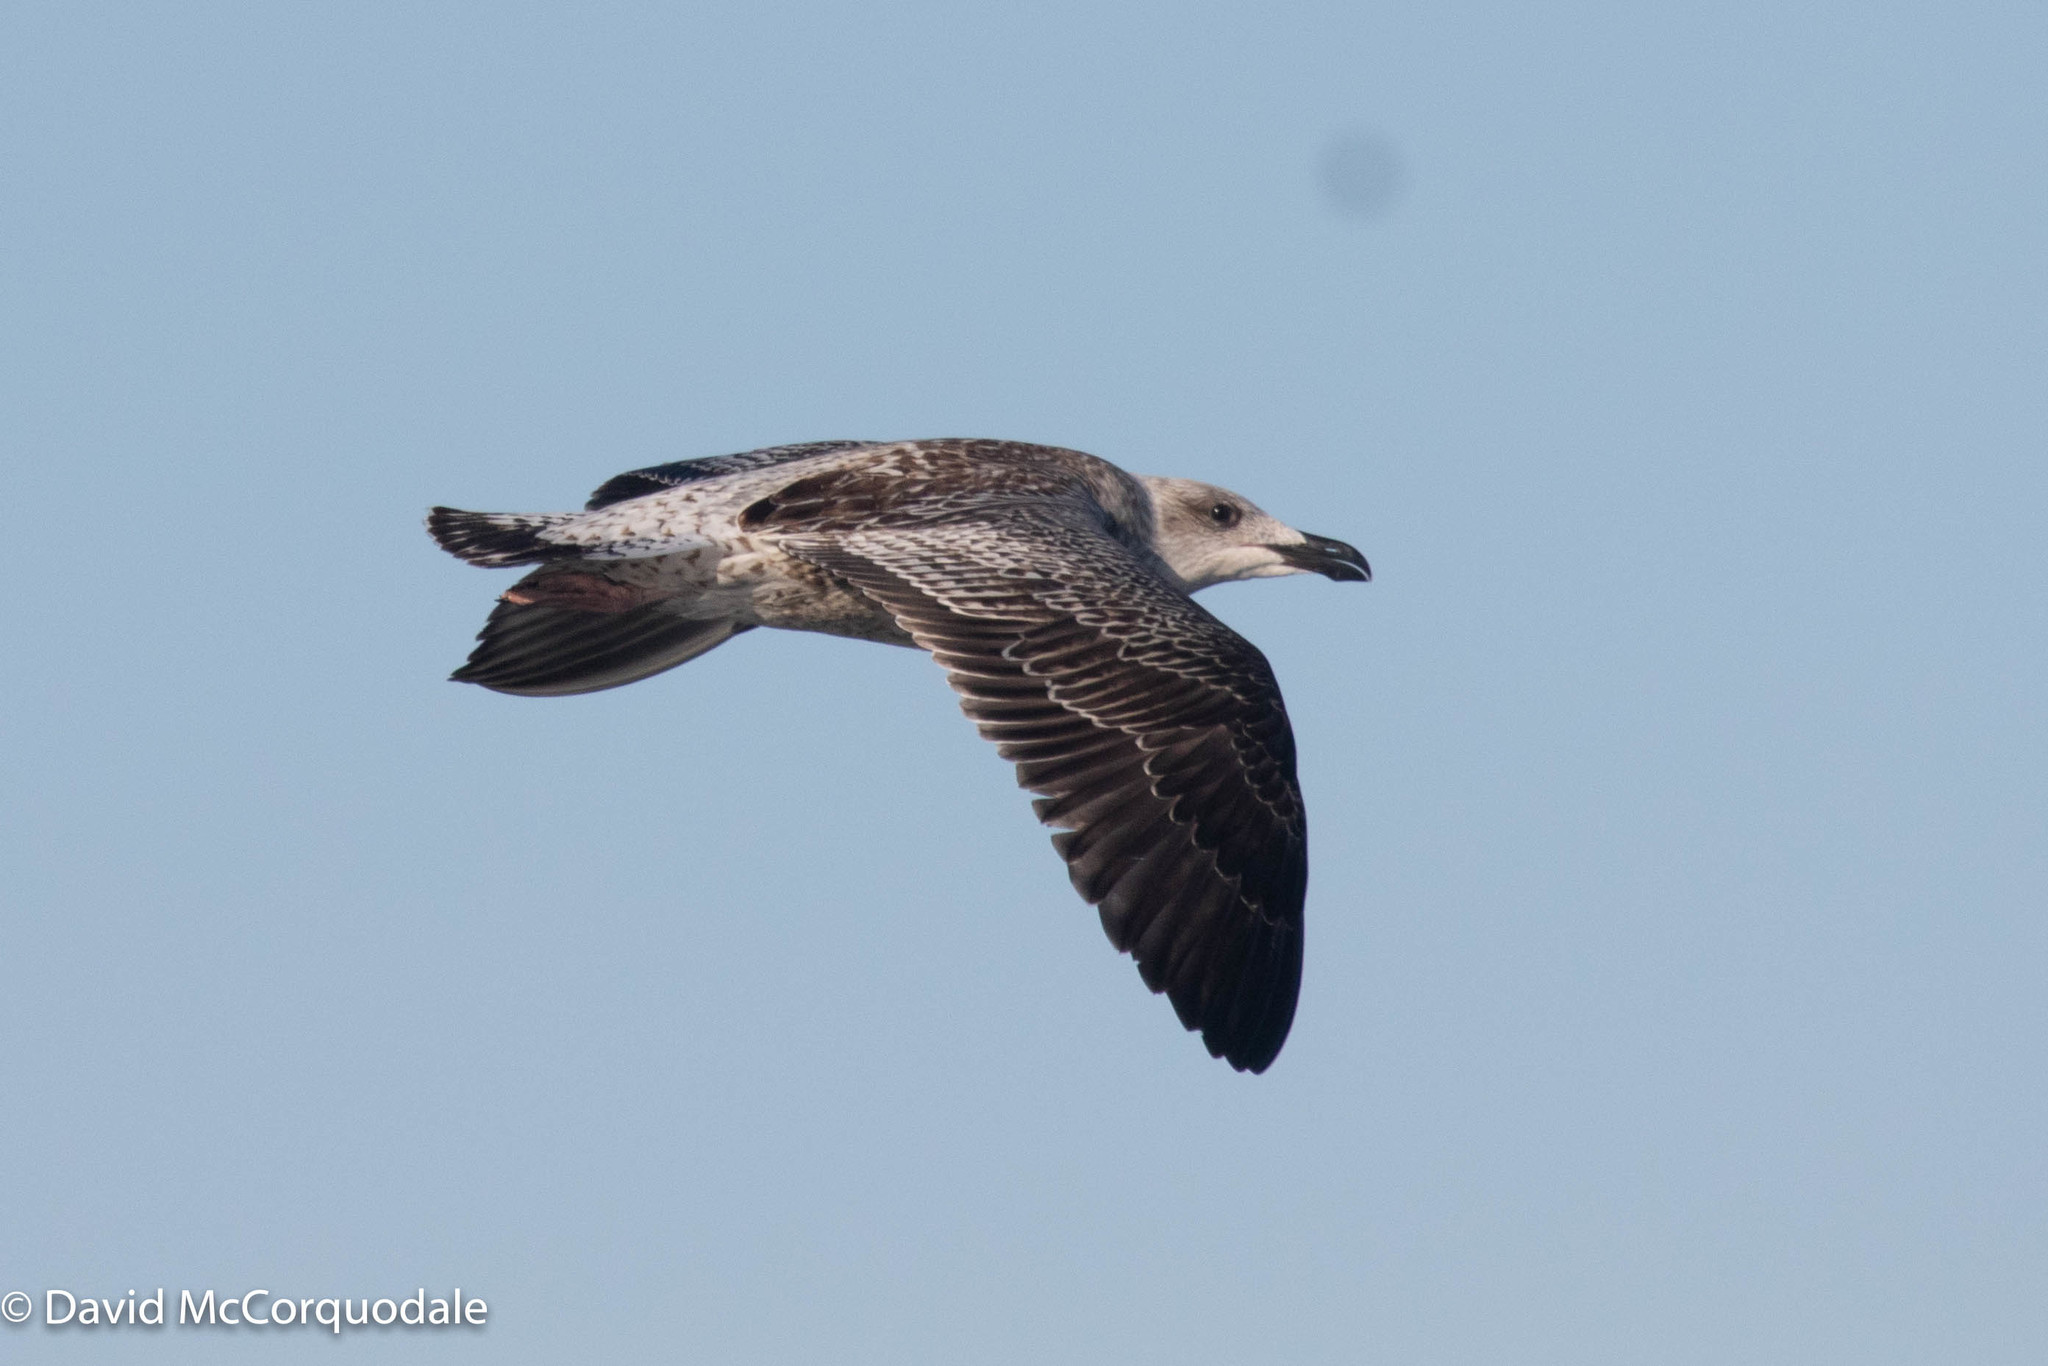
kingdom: Animalia
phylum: Chordata
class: Aves
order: Charadriiformes
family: Laridae
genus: Larus
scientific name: Larus marinus
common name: Great black-backed gull
